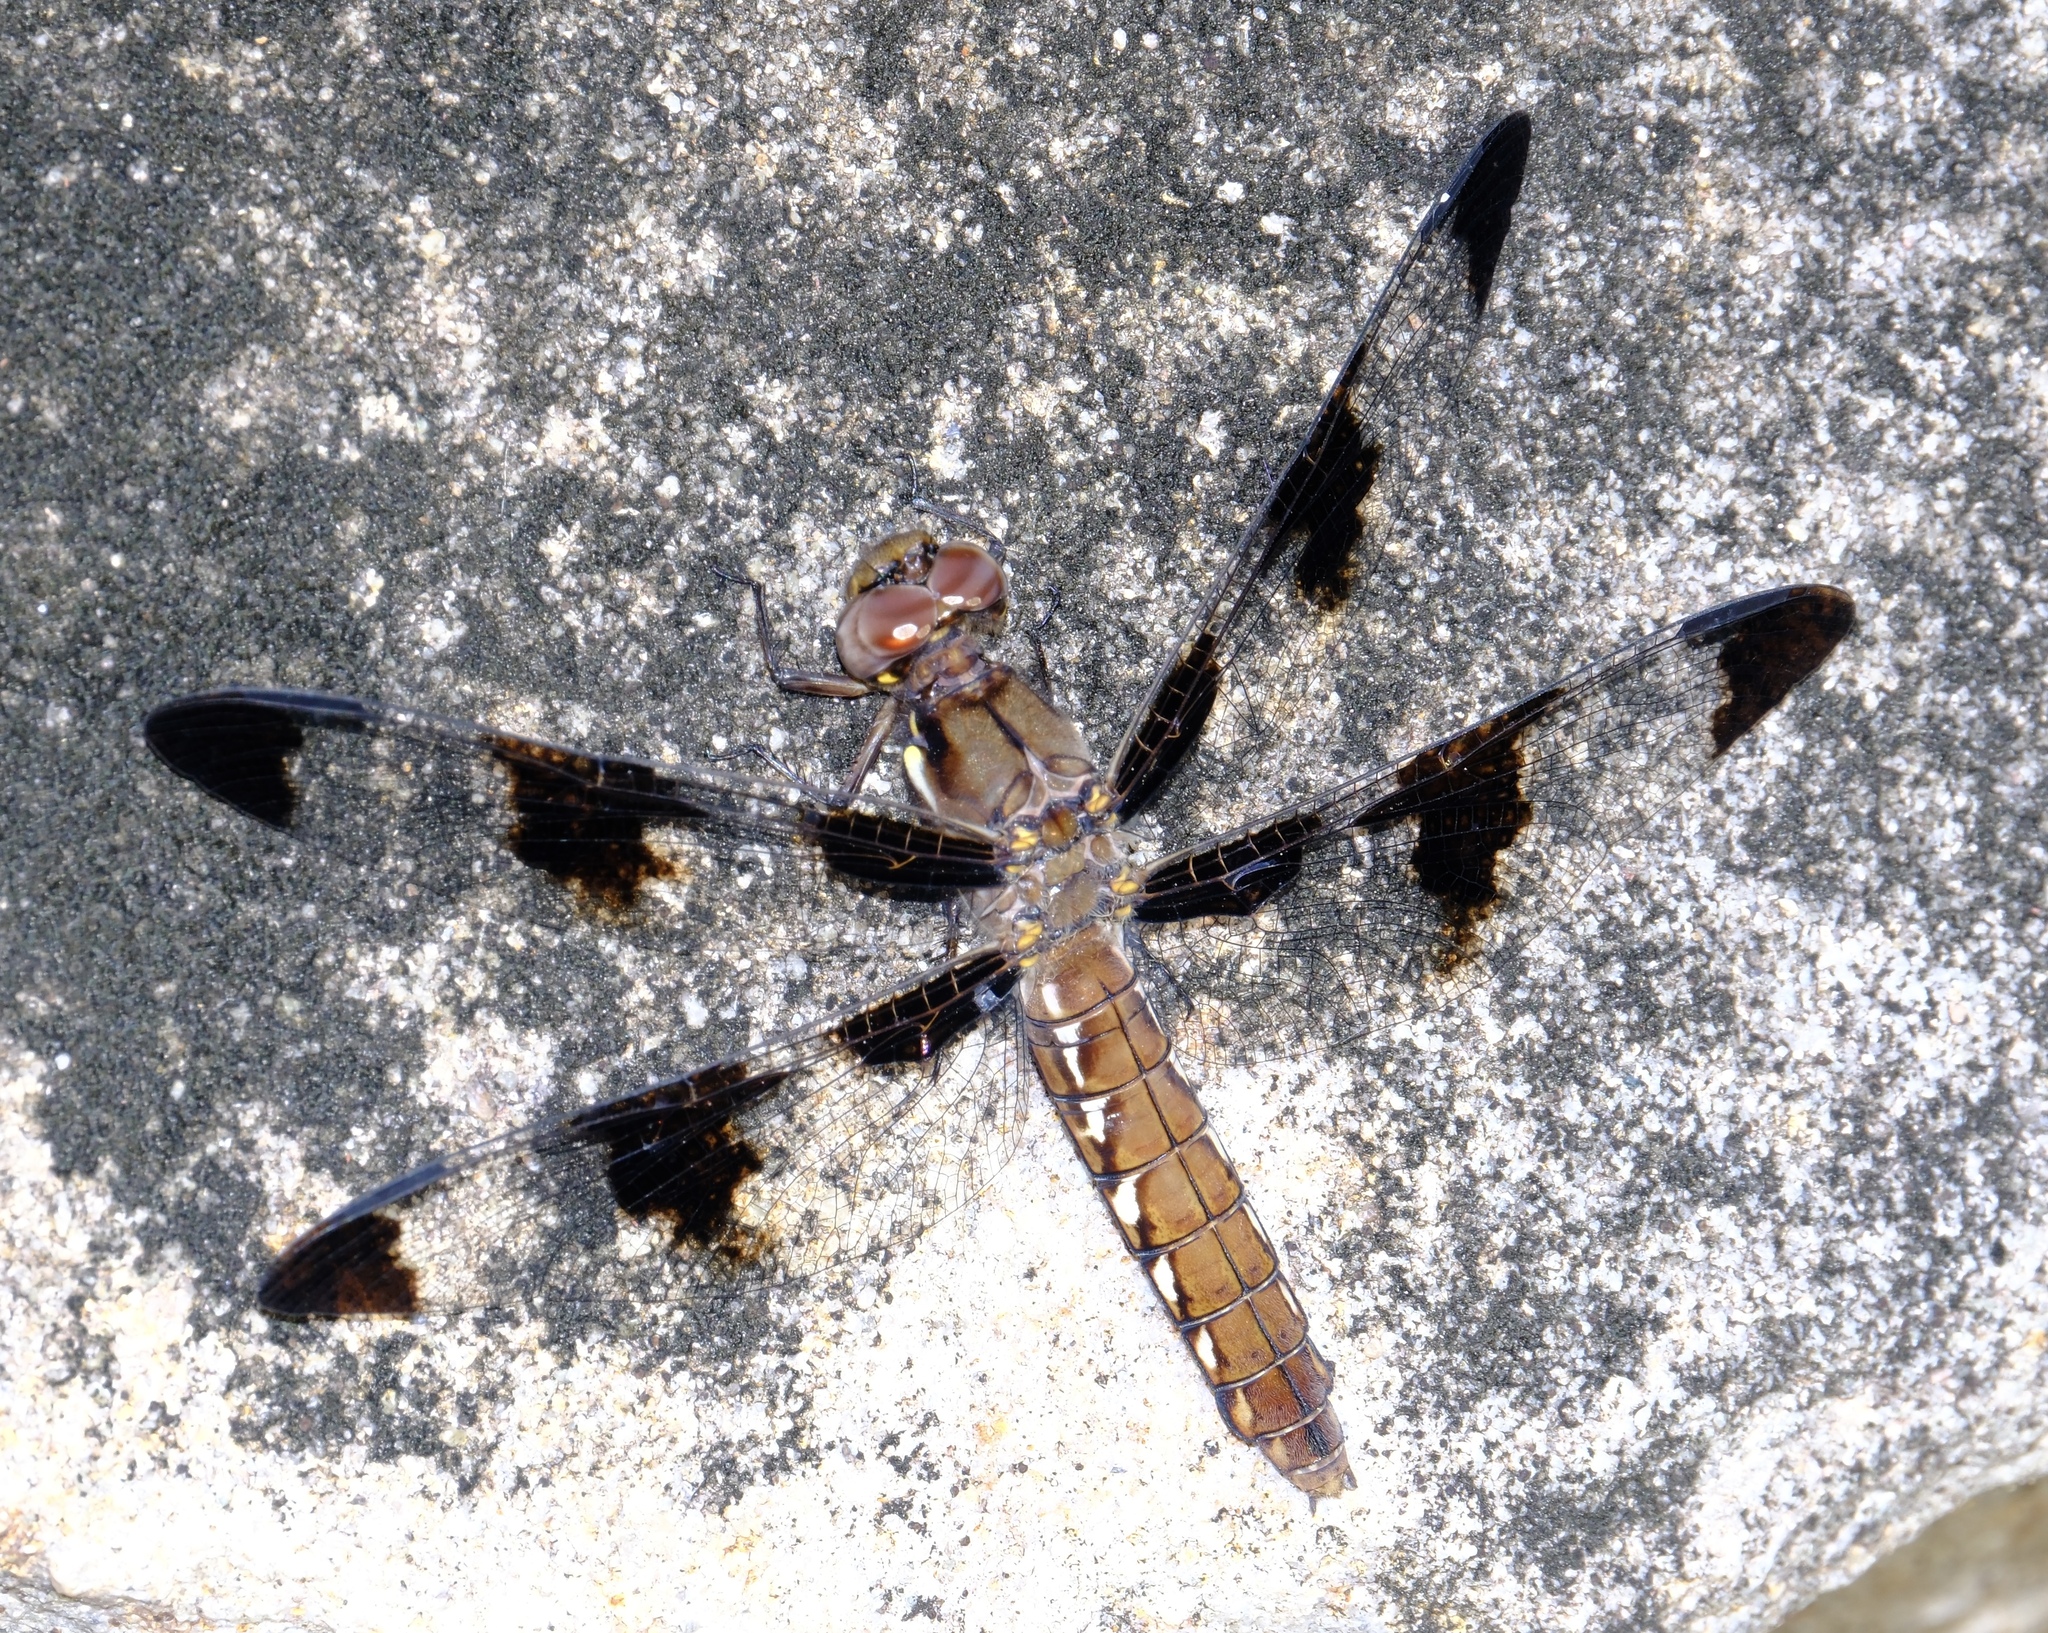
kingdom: Animalia
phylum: Arthropoda
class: Insecta
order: Odonata
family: Libellulidae
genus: Plathemis
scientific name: Plathemis lydia
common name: Common whitetail
